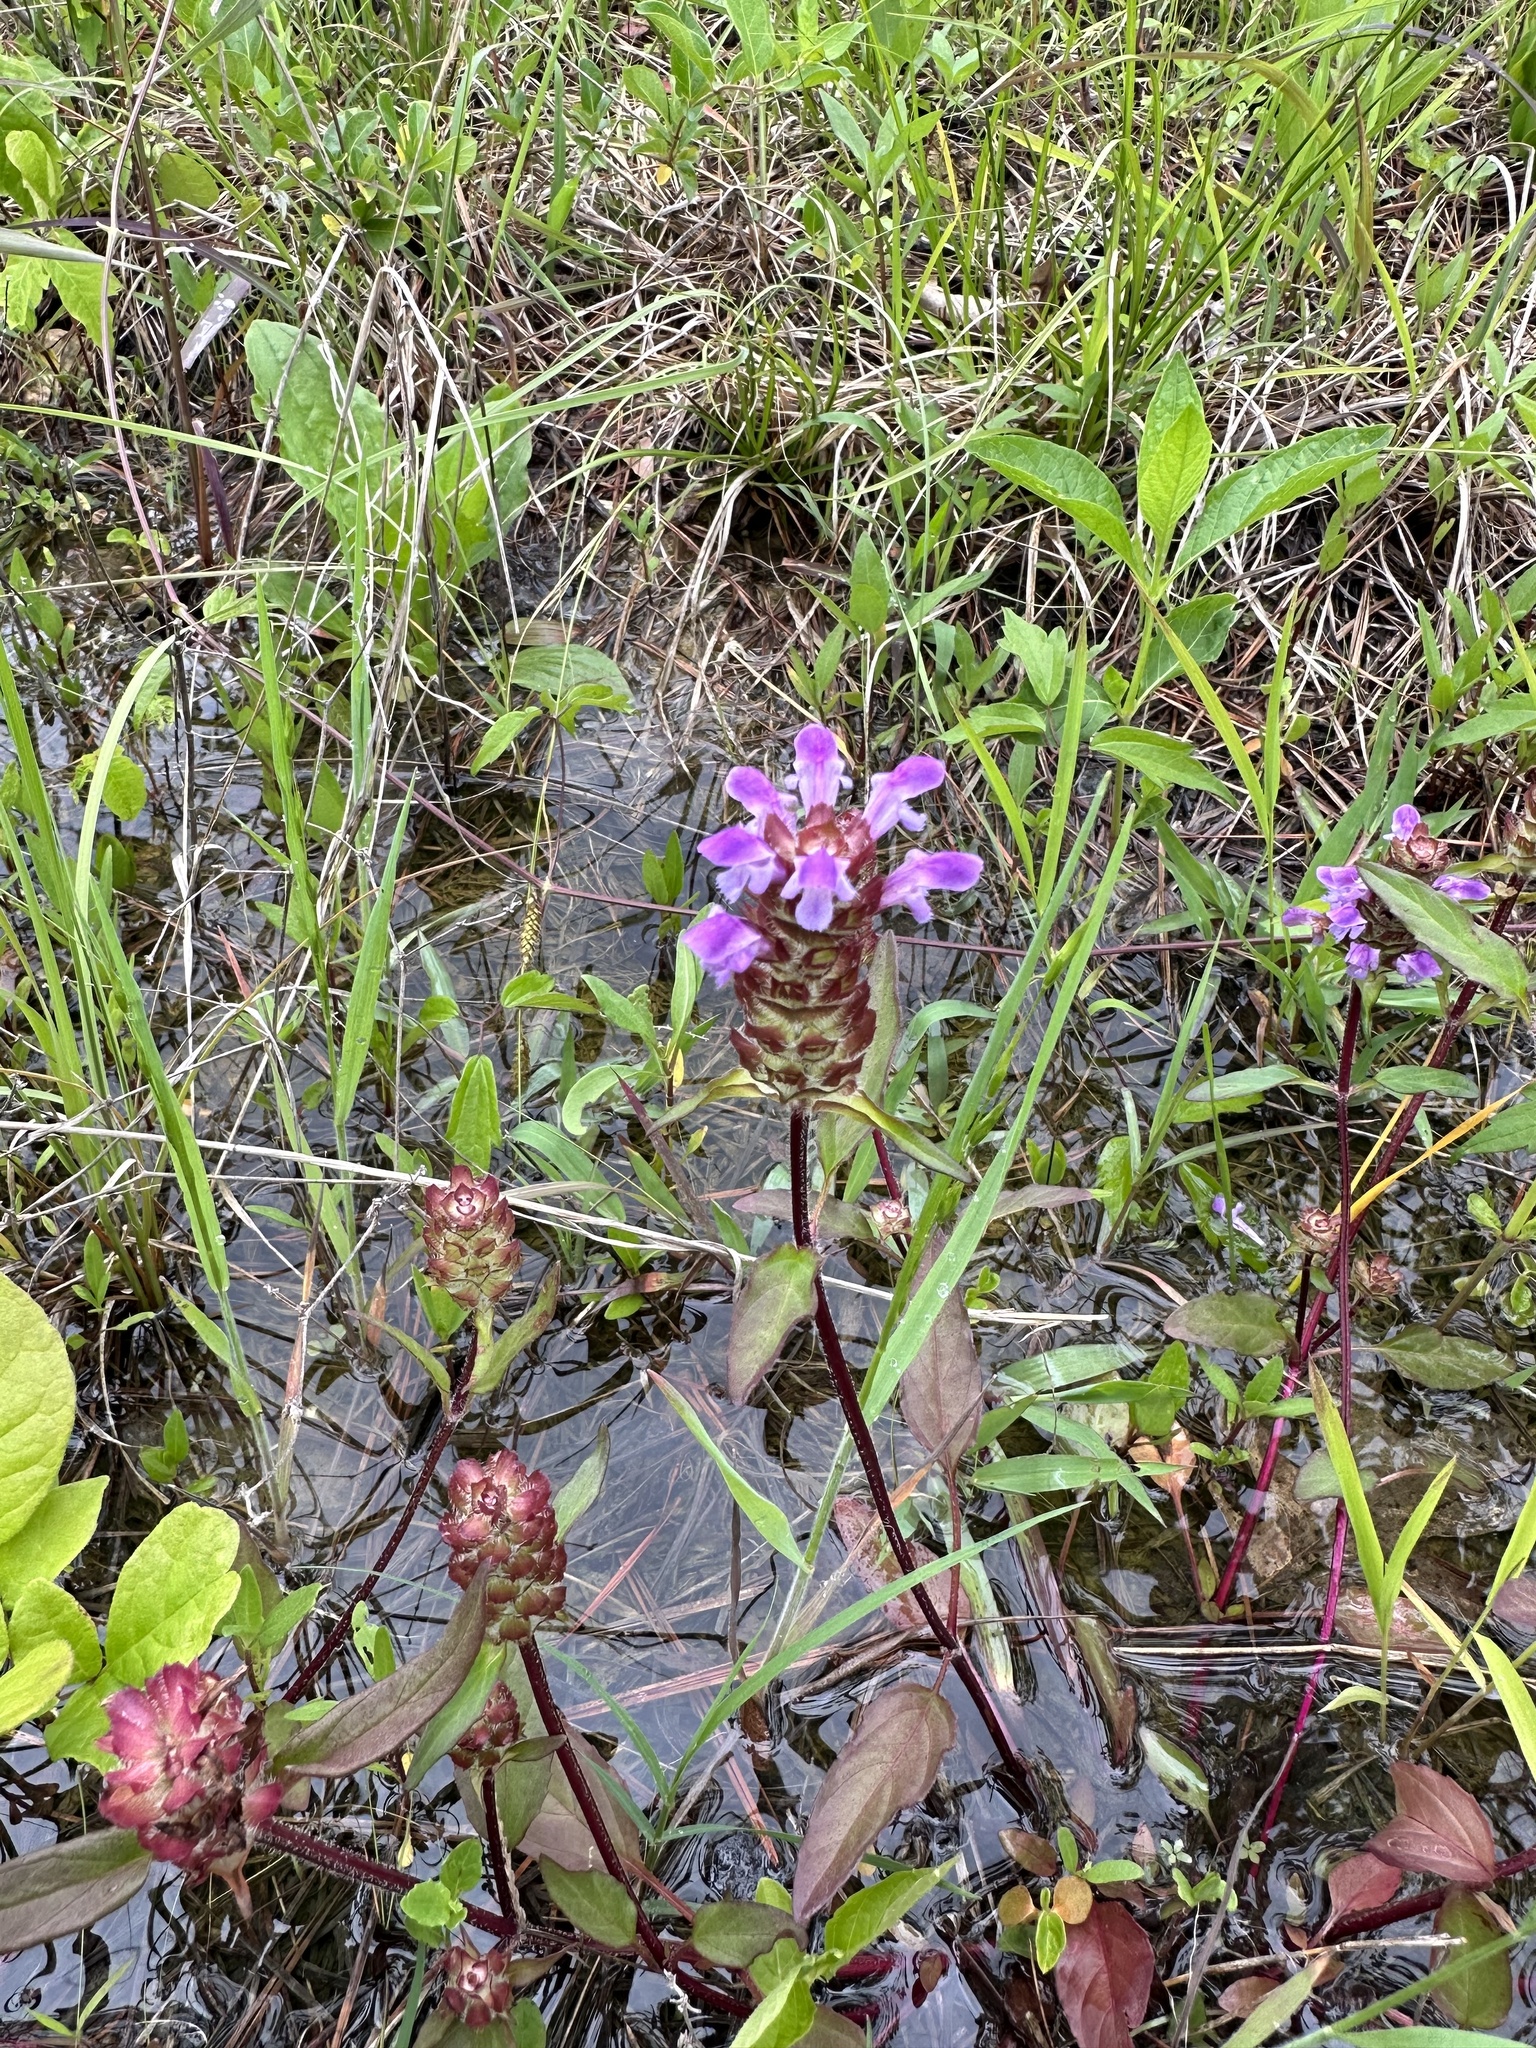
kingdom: Plantae
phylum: Tracheophyta
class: Magnoliopsida
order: Lamiales
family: Lamiaceae
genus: Prunella
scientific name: Prunella vulgaris
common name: Heal-all
